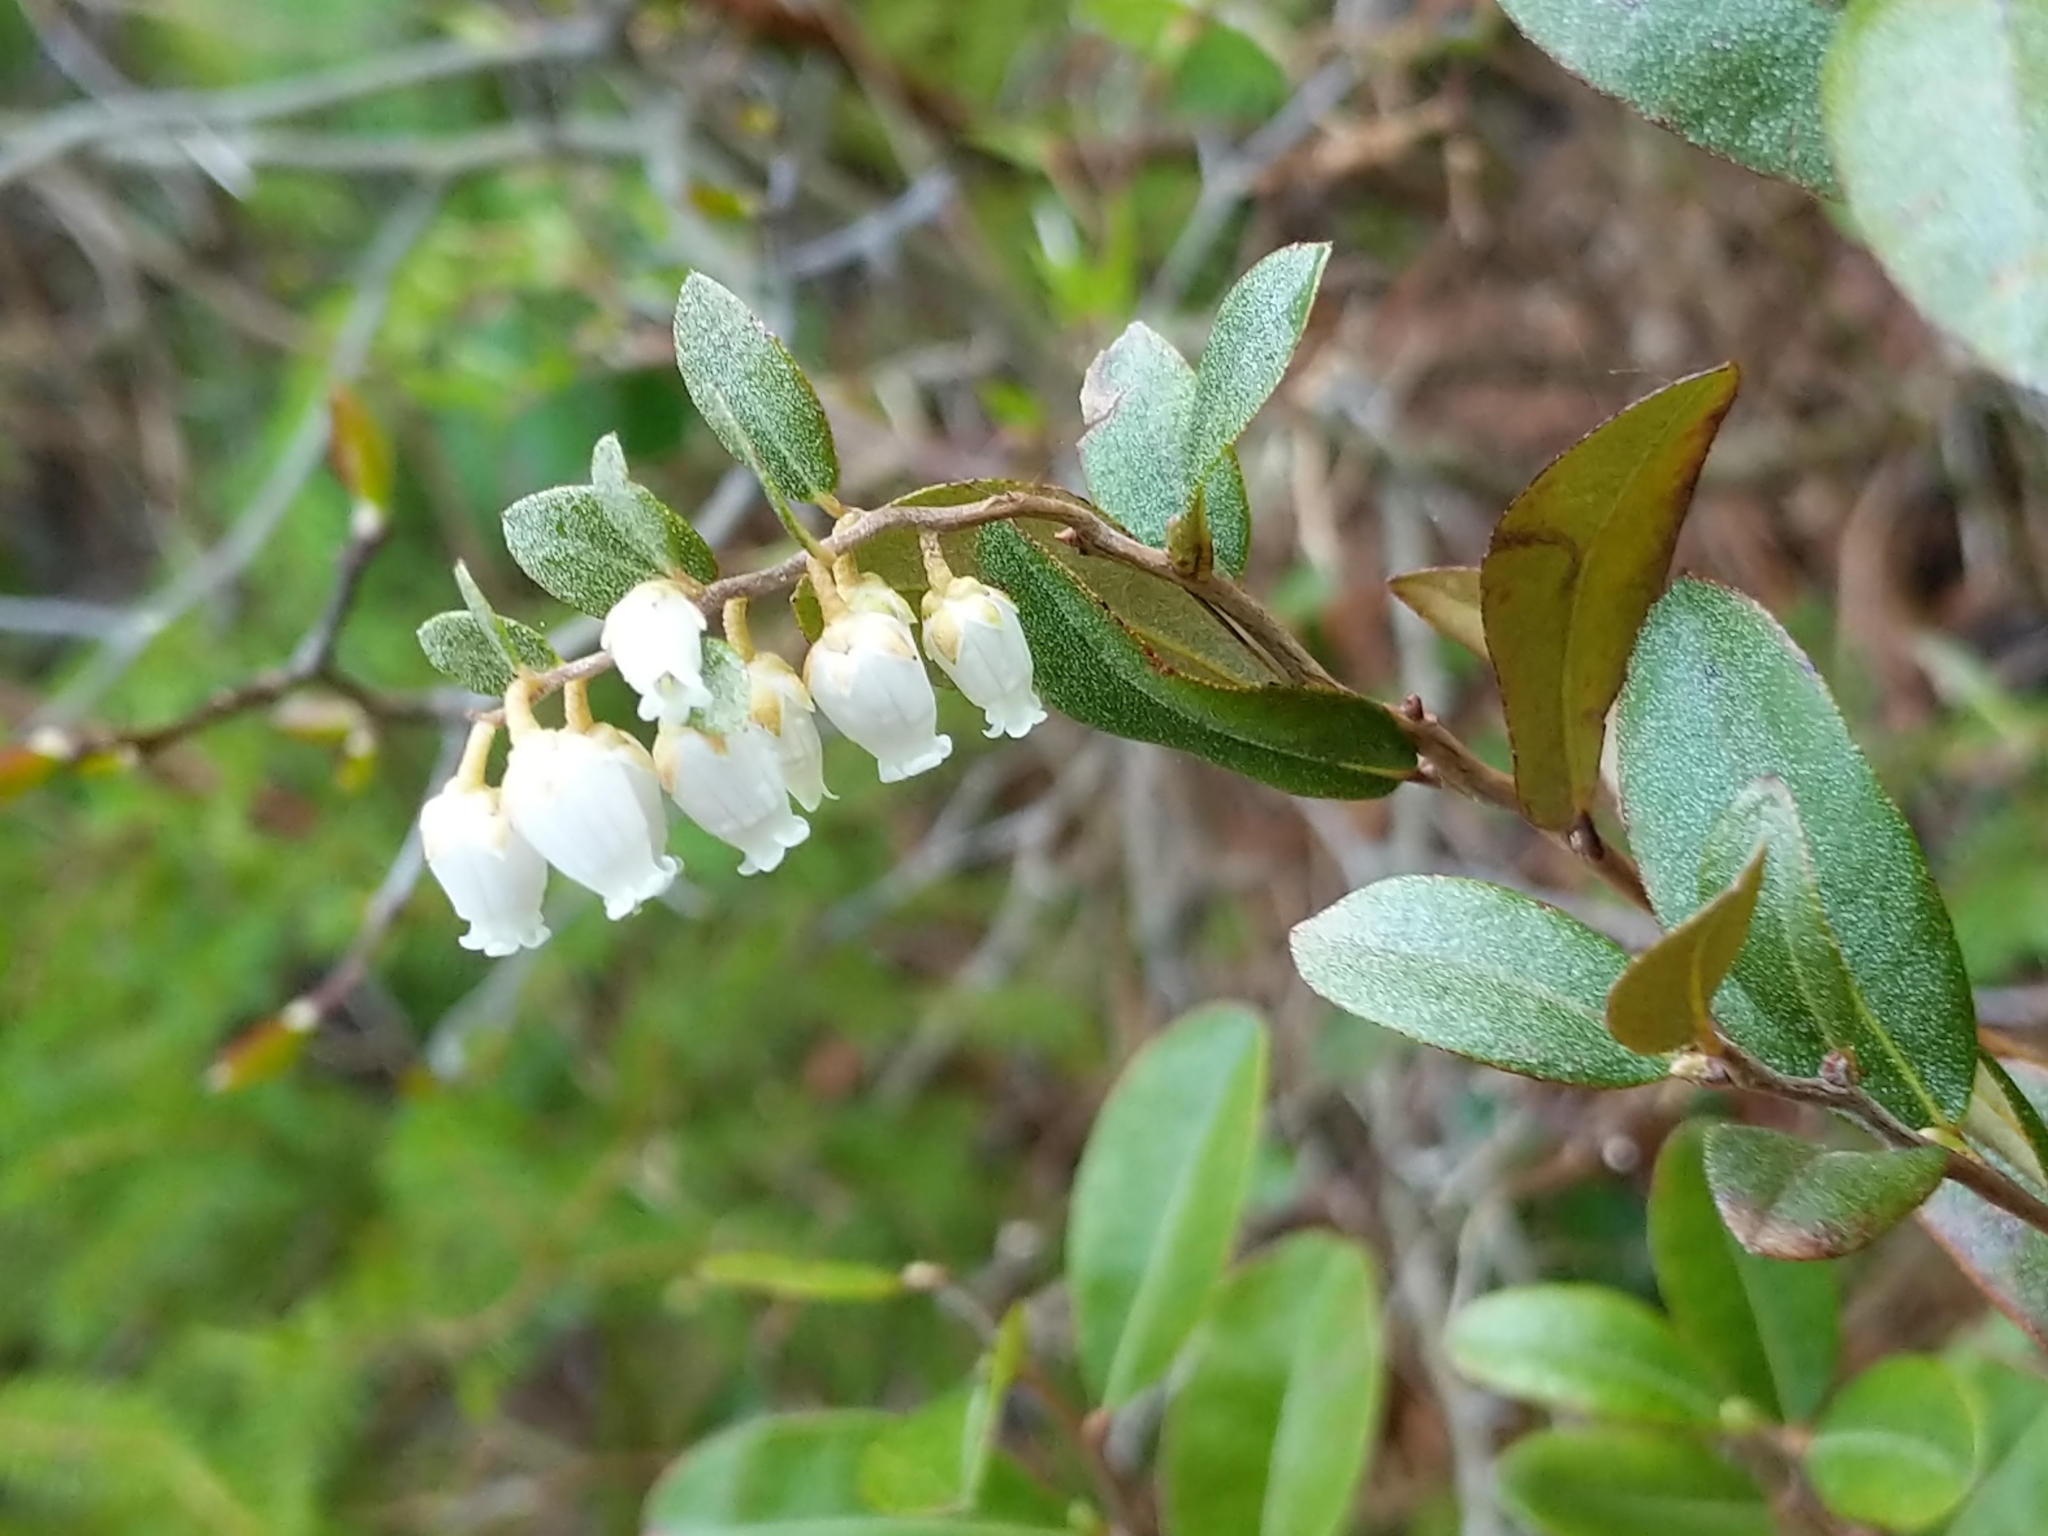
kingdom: Plantae
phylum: Tracheophyta
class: Magnoliopsida
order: Ericales
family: Ericaceae
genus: Chamaedaphne
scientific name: Chamaedaphne calyculata
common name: Leatherleaf
